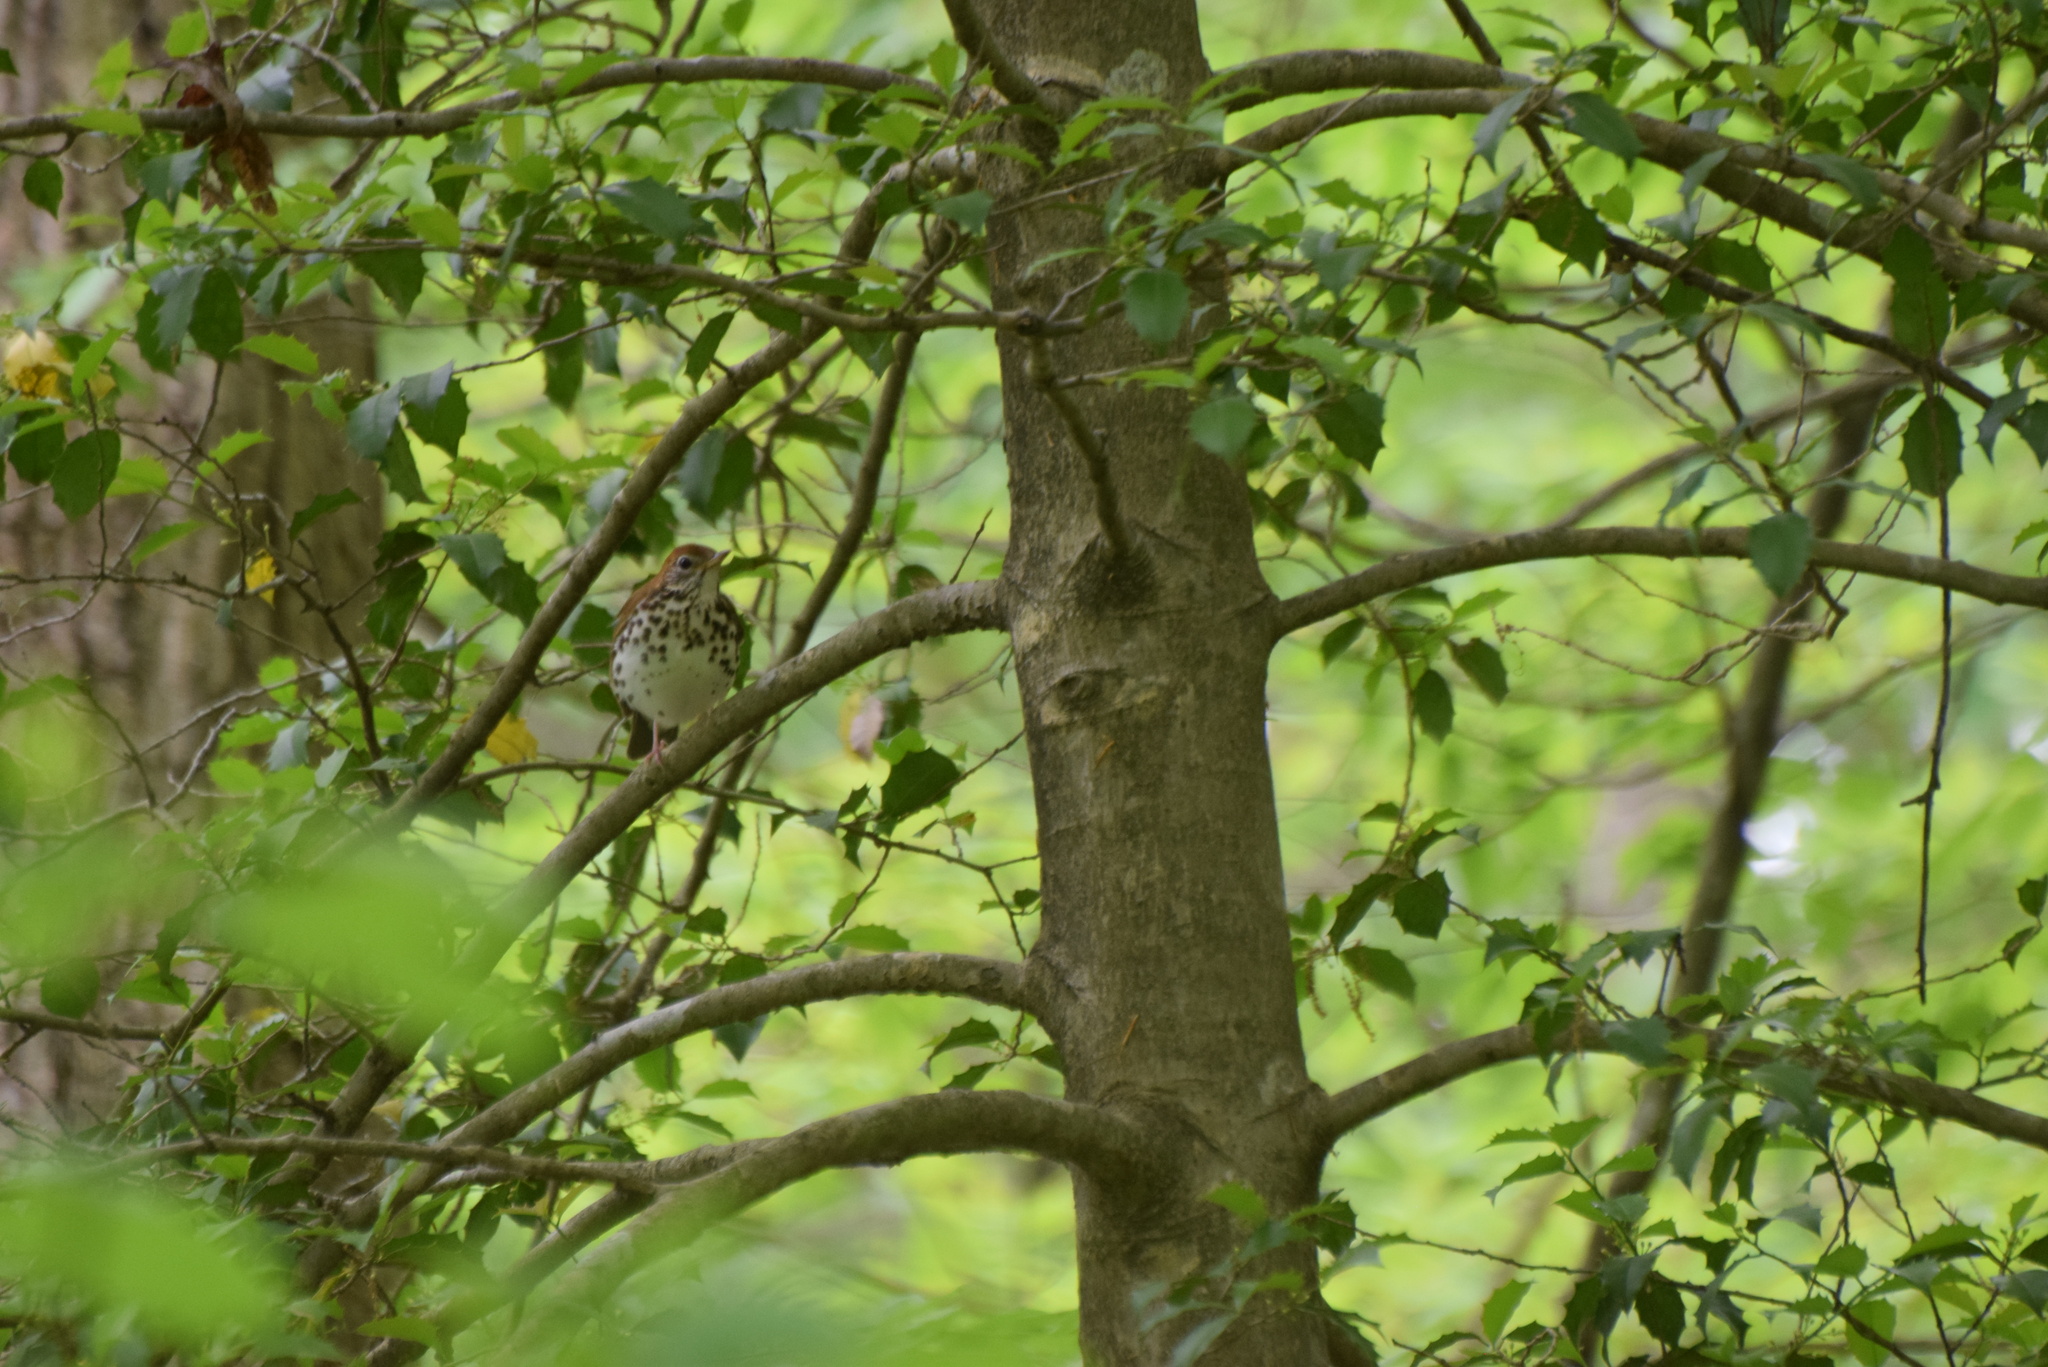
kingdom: Animalia
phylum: Chordata
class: Aves
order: Passeriformes
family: Turdidae
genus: Hylocichla
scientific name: Hylocichla mustelina
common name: Wood thrush
